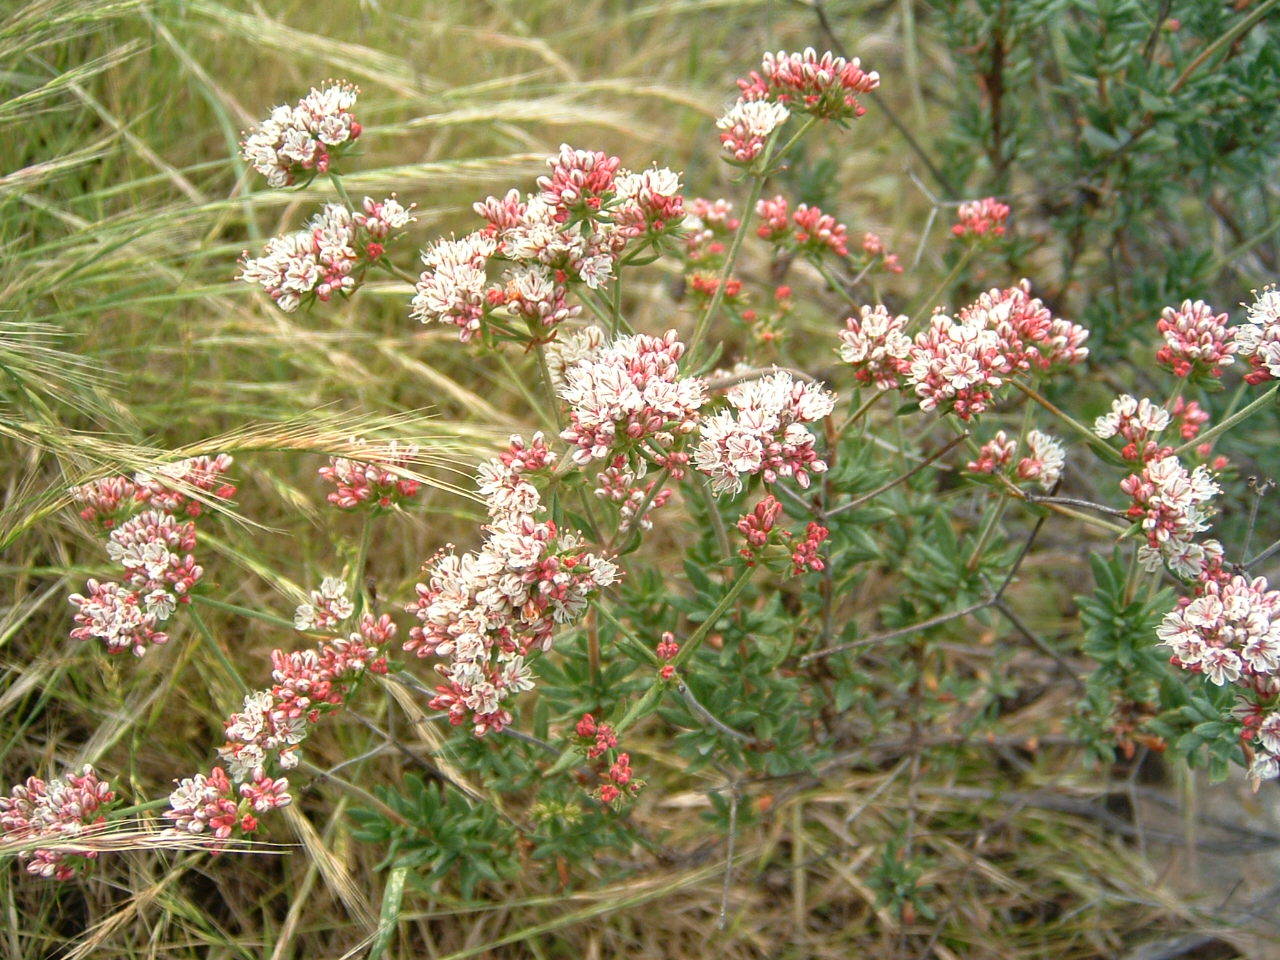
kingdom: Plantae
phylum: Tracheophyta
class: Magnoliopsida
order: Caryophyllales
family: Polygonaceae
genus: Eriogonum
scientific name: Eriogonum fasciculatum
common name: California wild buckwheat
